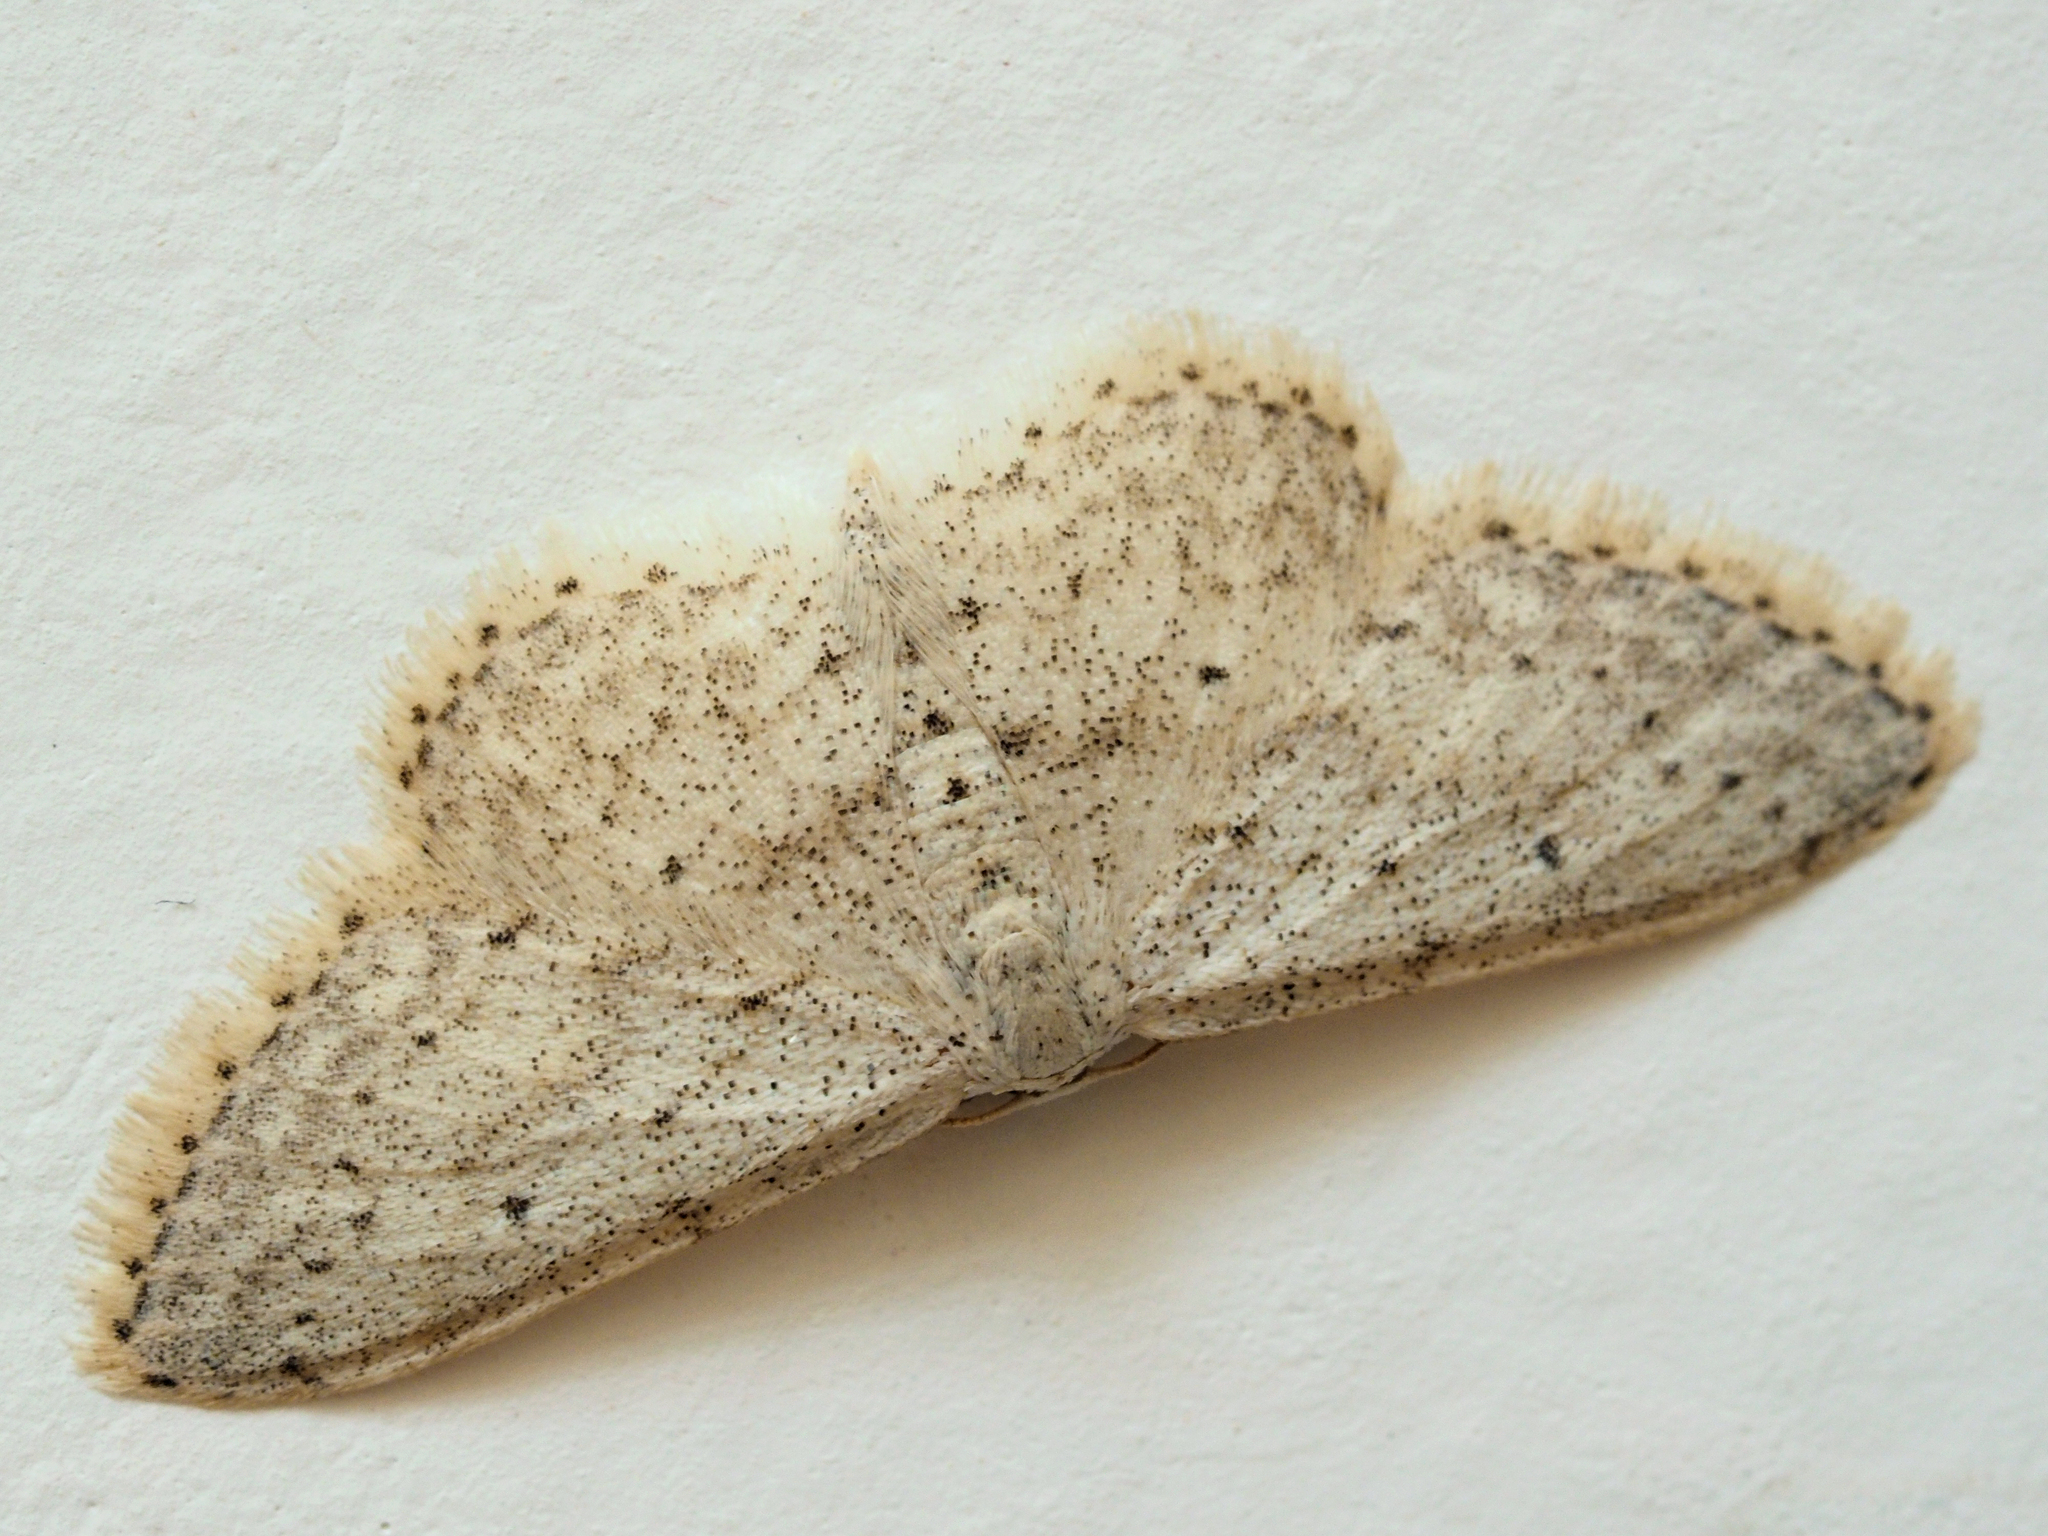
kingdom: Animalia
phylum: Arthropoda
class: Insecta
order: Lepidoptera
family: Geometridae
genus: Idaea
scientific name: Idaea seriata
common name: Small dusty wave
